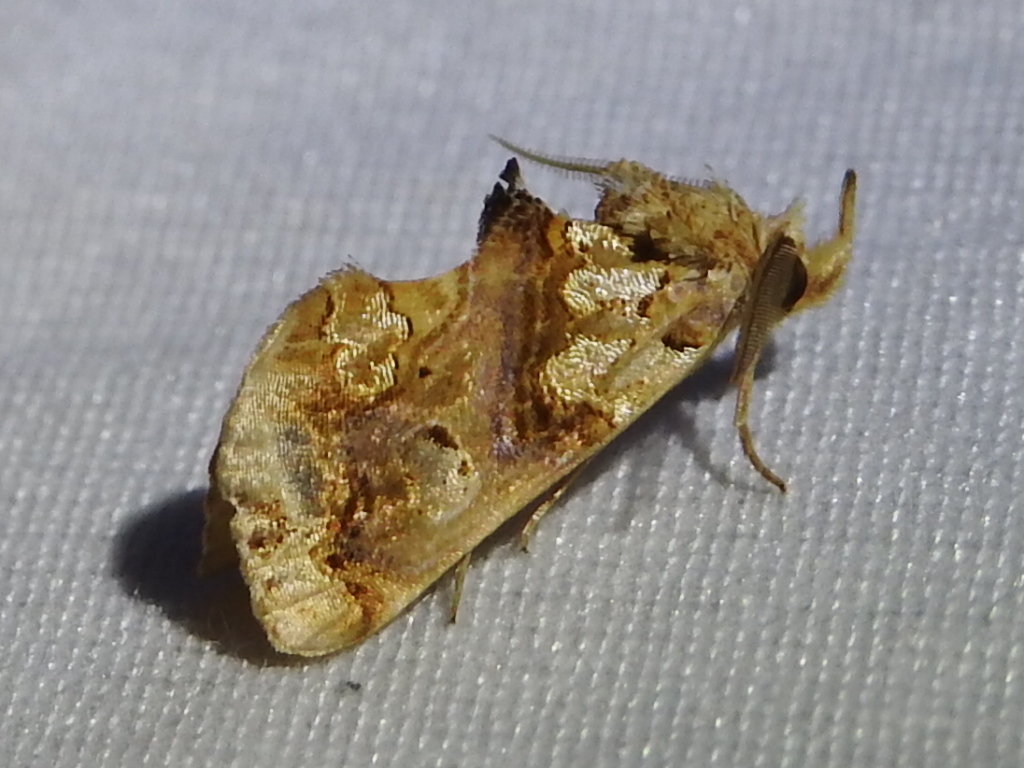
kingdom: Animalia
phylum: Arthropoda
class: Insecta
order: Lepidoptera
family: Erebidae
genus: Plusiodonta
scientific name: Plusiodonta compressipalpis
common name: Moonseed moth
